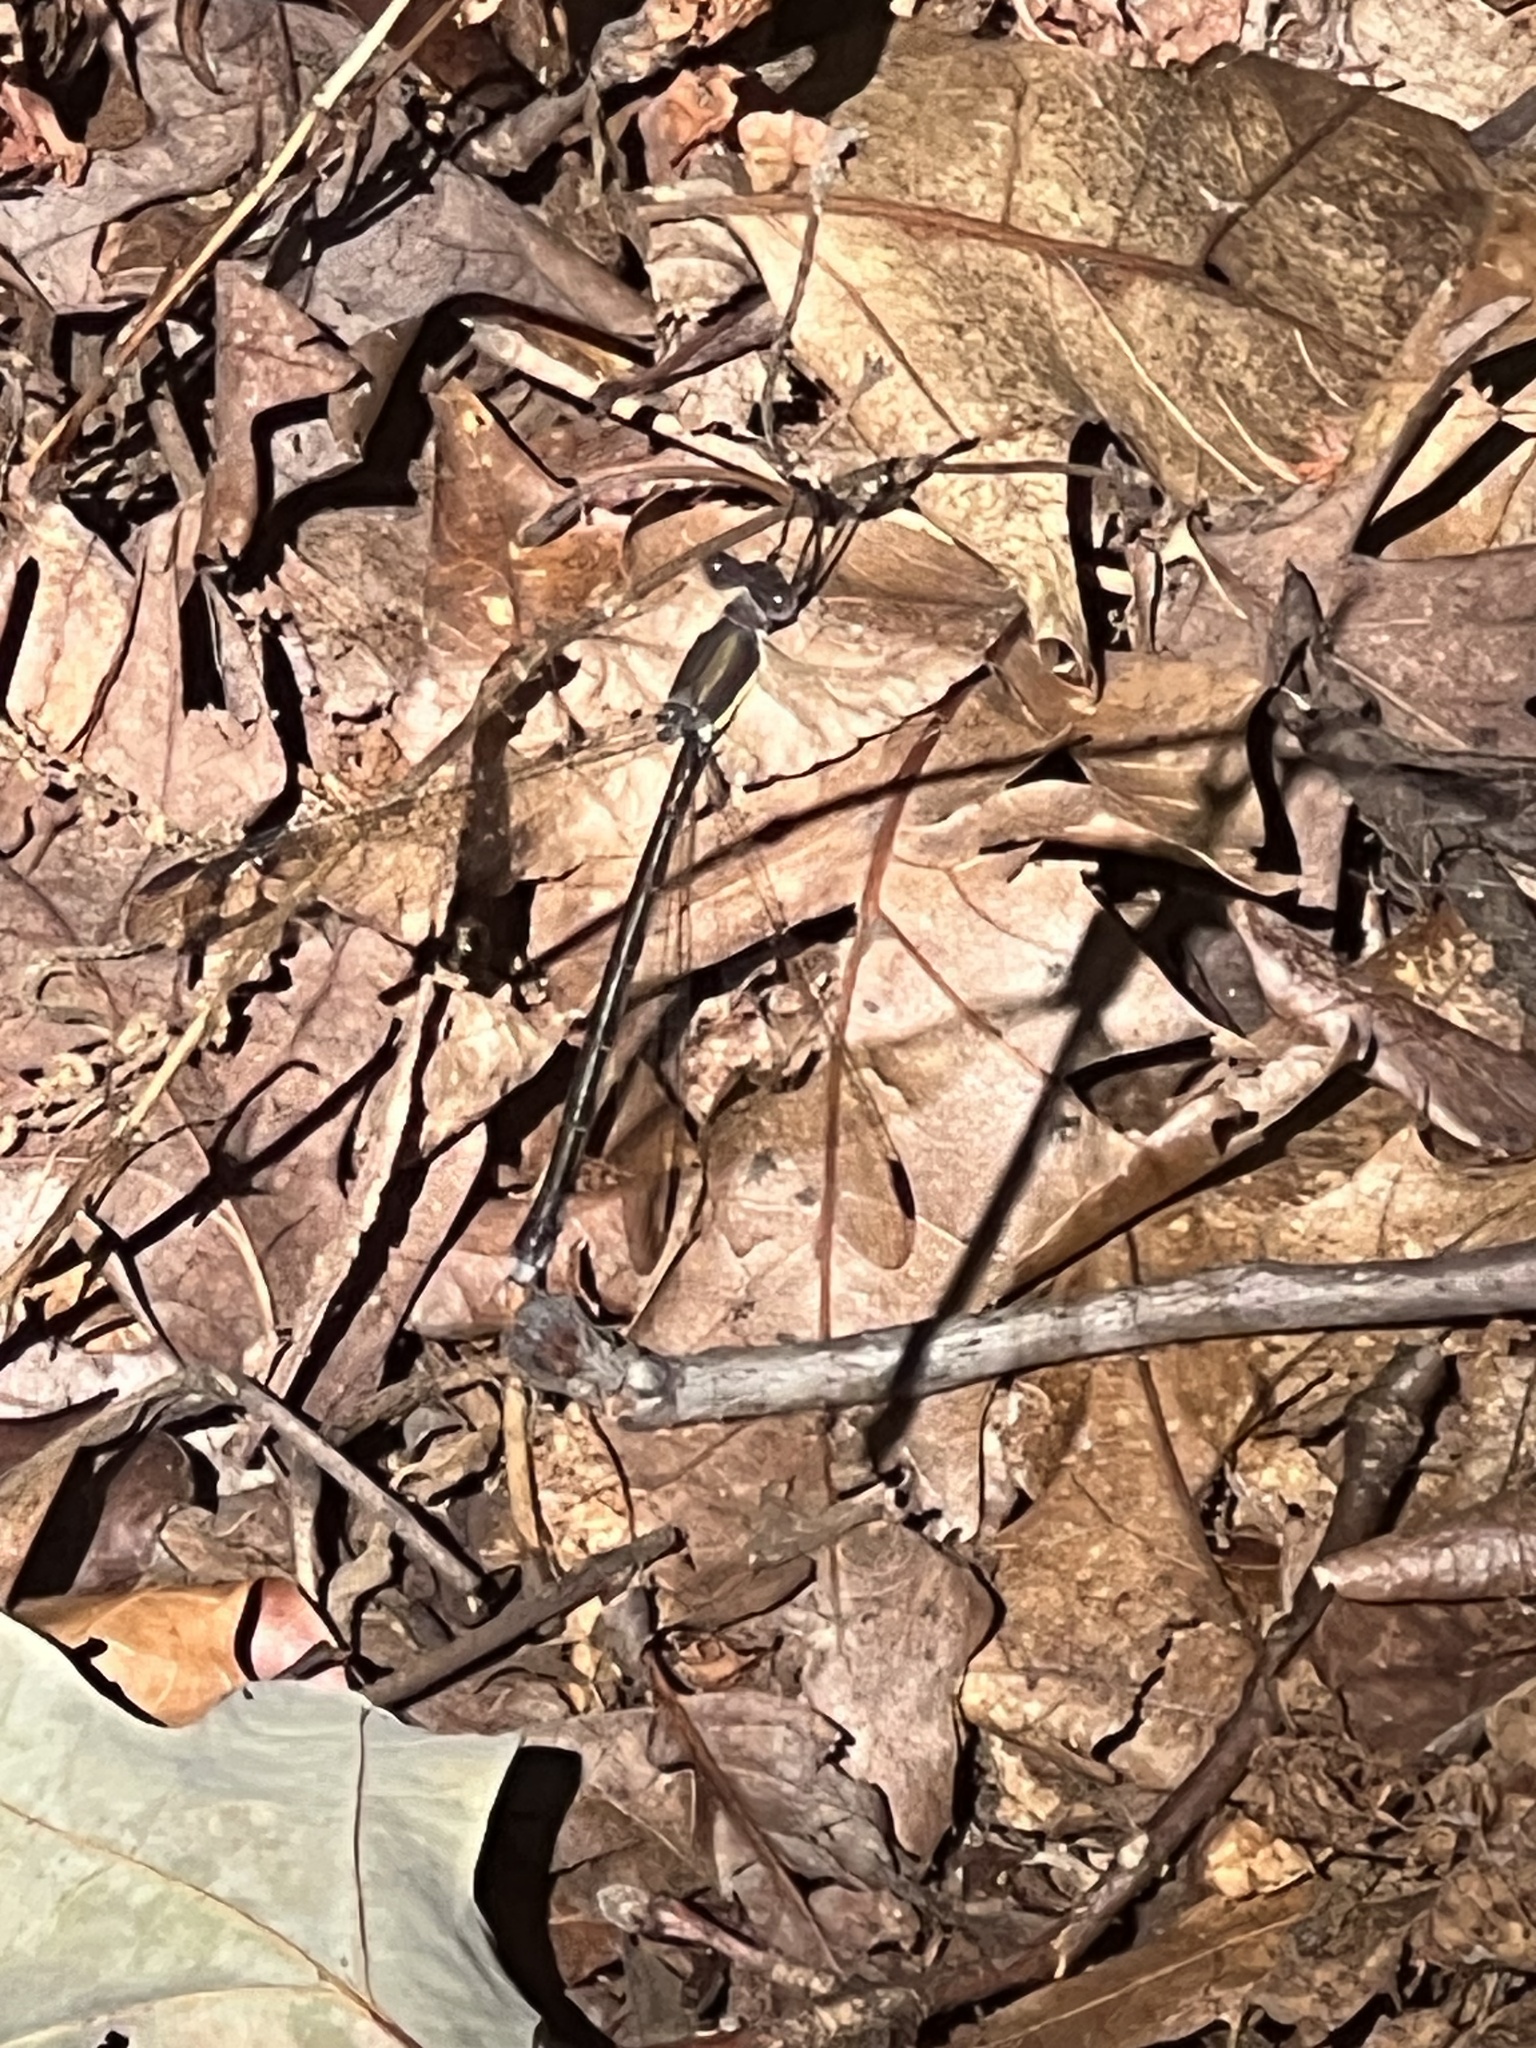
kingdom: Animalia
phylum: Arthropoda
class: Insecta
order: Odonata
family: Lestidae
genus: Archilestes
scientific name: Archilestes grandis
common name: Great spreadwing
